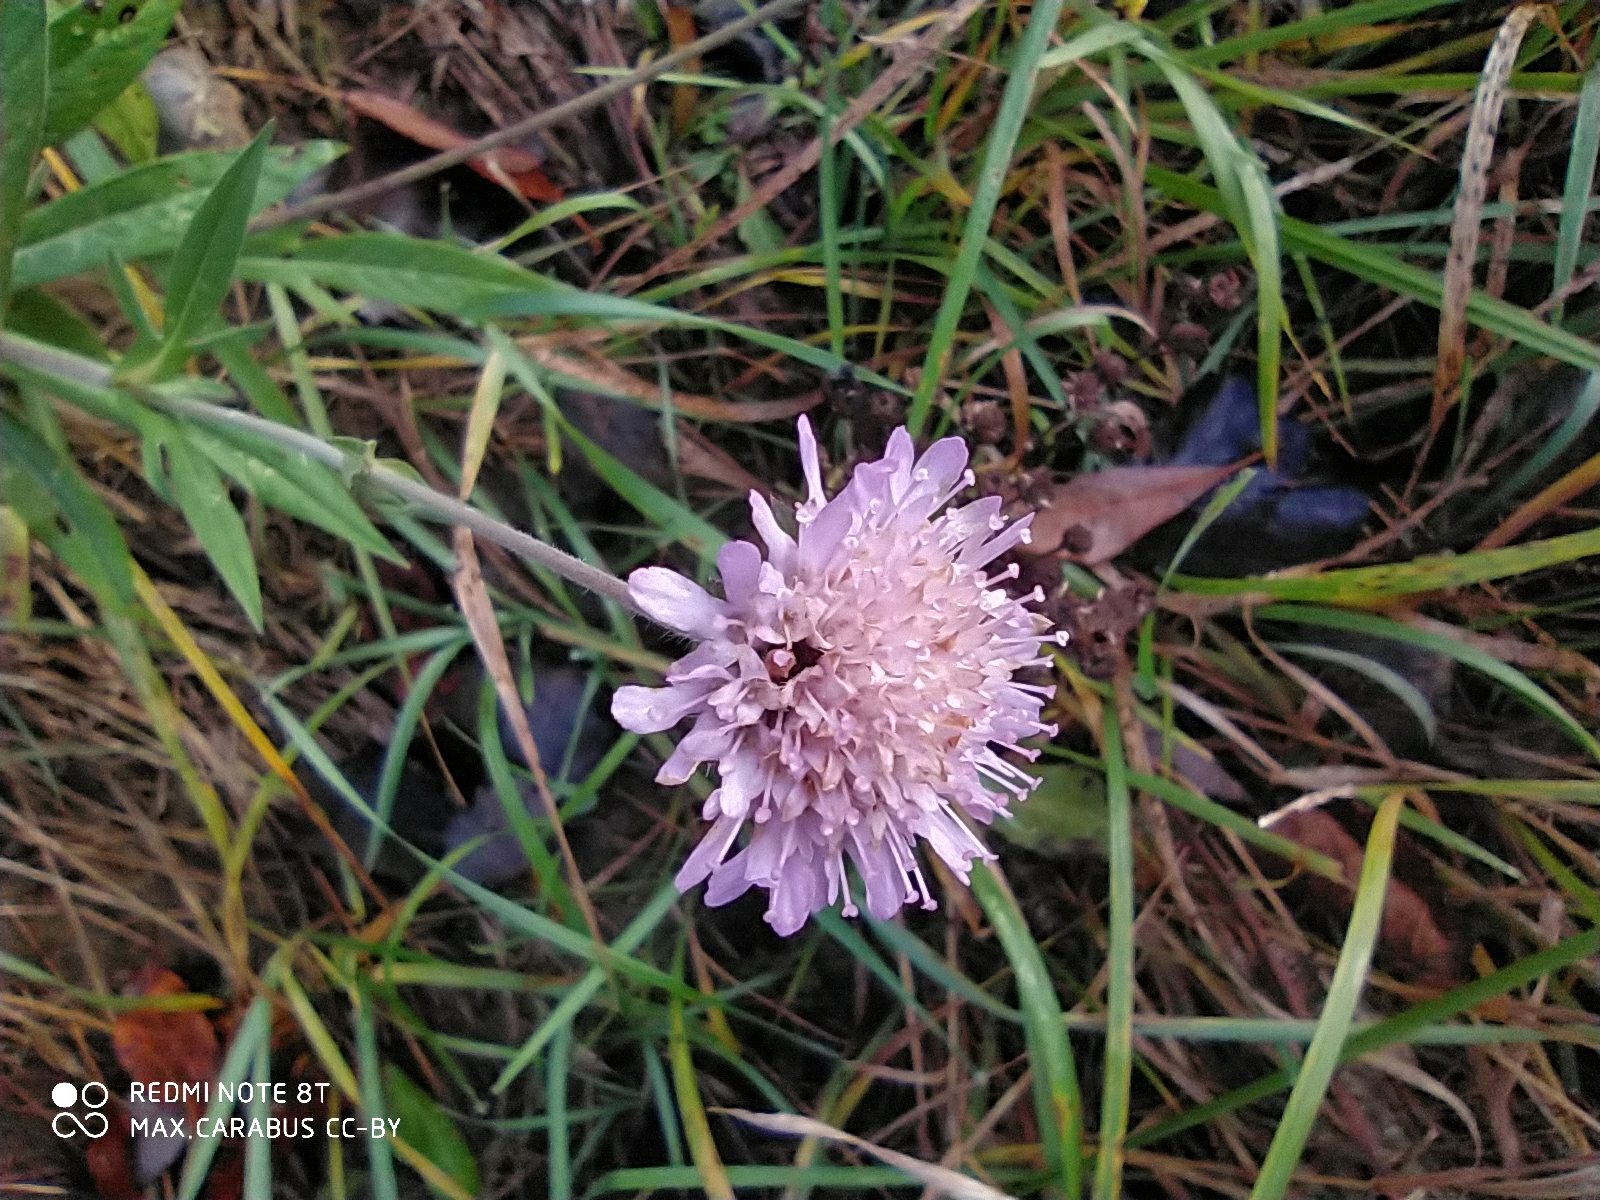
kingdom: Plantae
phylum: Tracheophyta
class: Magnoliopsida
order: Dipsacales
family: Caprifoliaceae
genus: Knautia
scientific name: Knautia arvensis
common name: Field scabiosa
